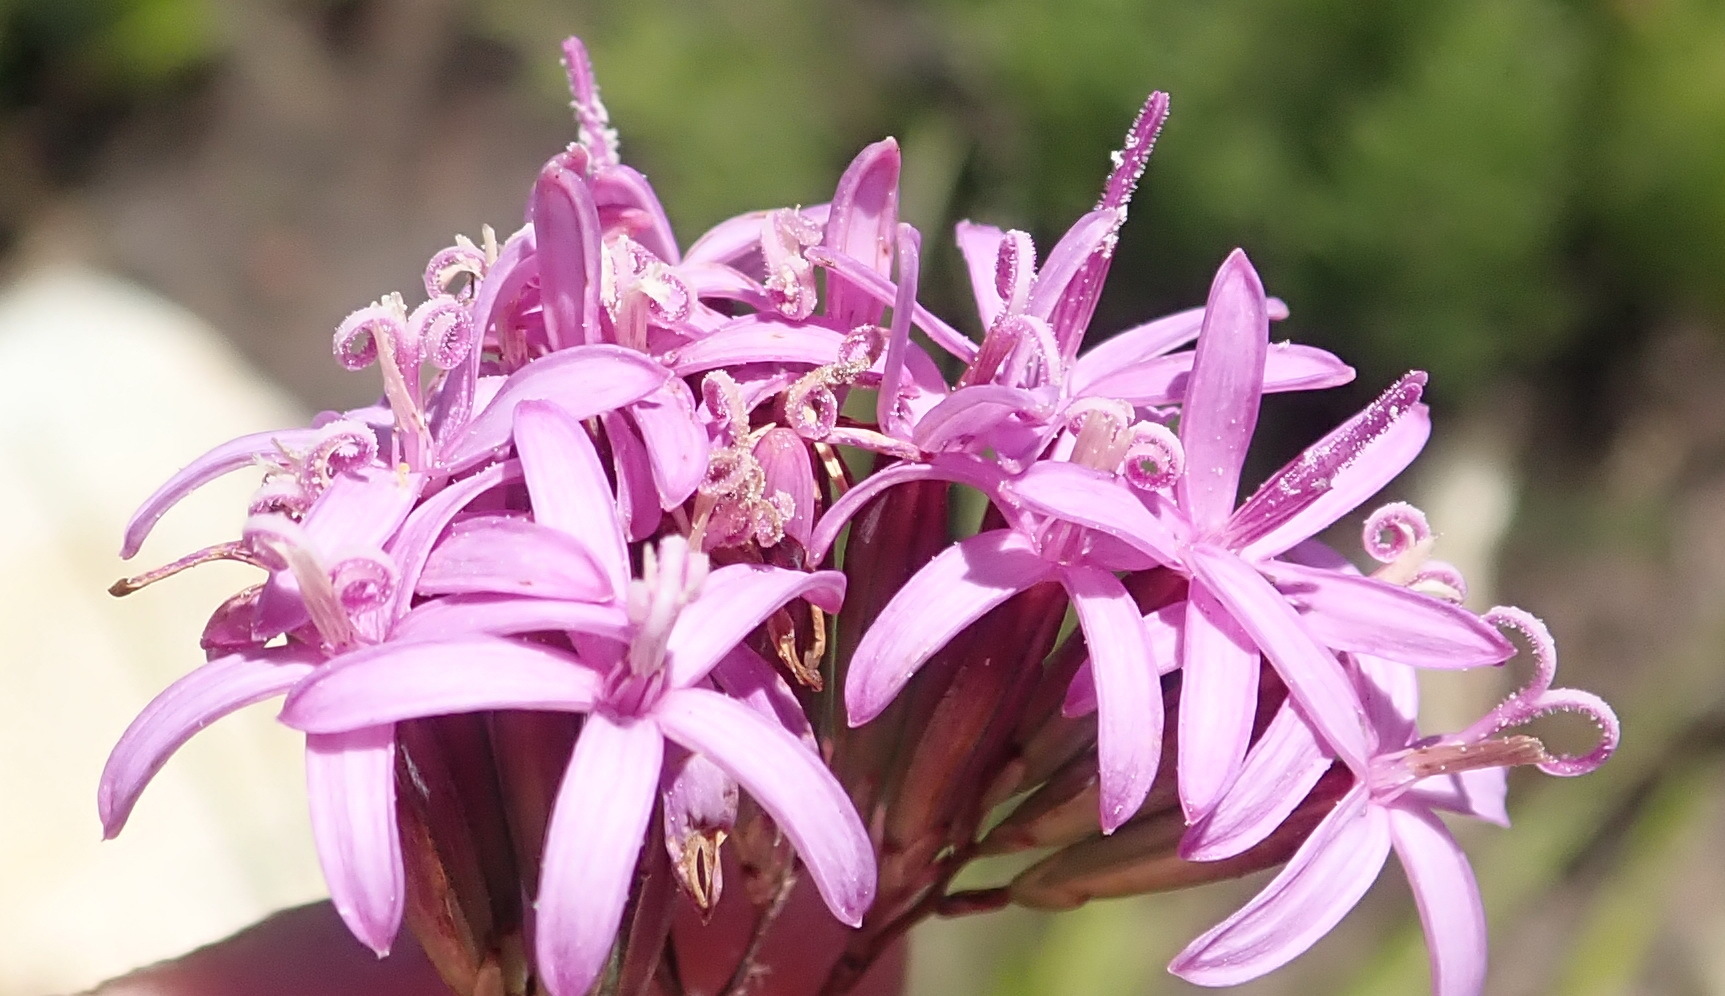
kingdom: Plantae
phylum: Tracheophyta
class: Magnoliopsida
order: Asterales
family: Asteraceae
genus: Corymbium
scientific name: Corymbium glabrum
